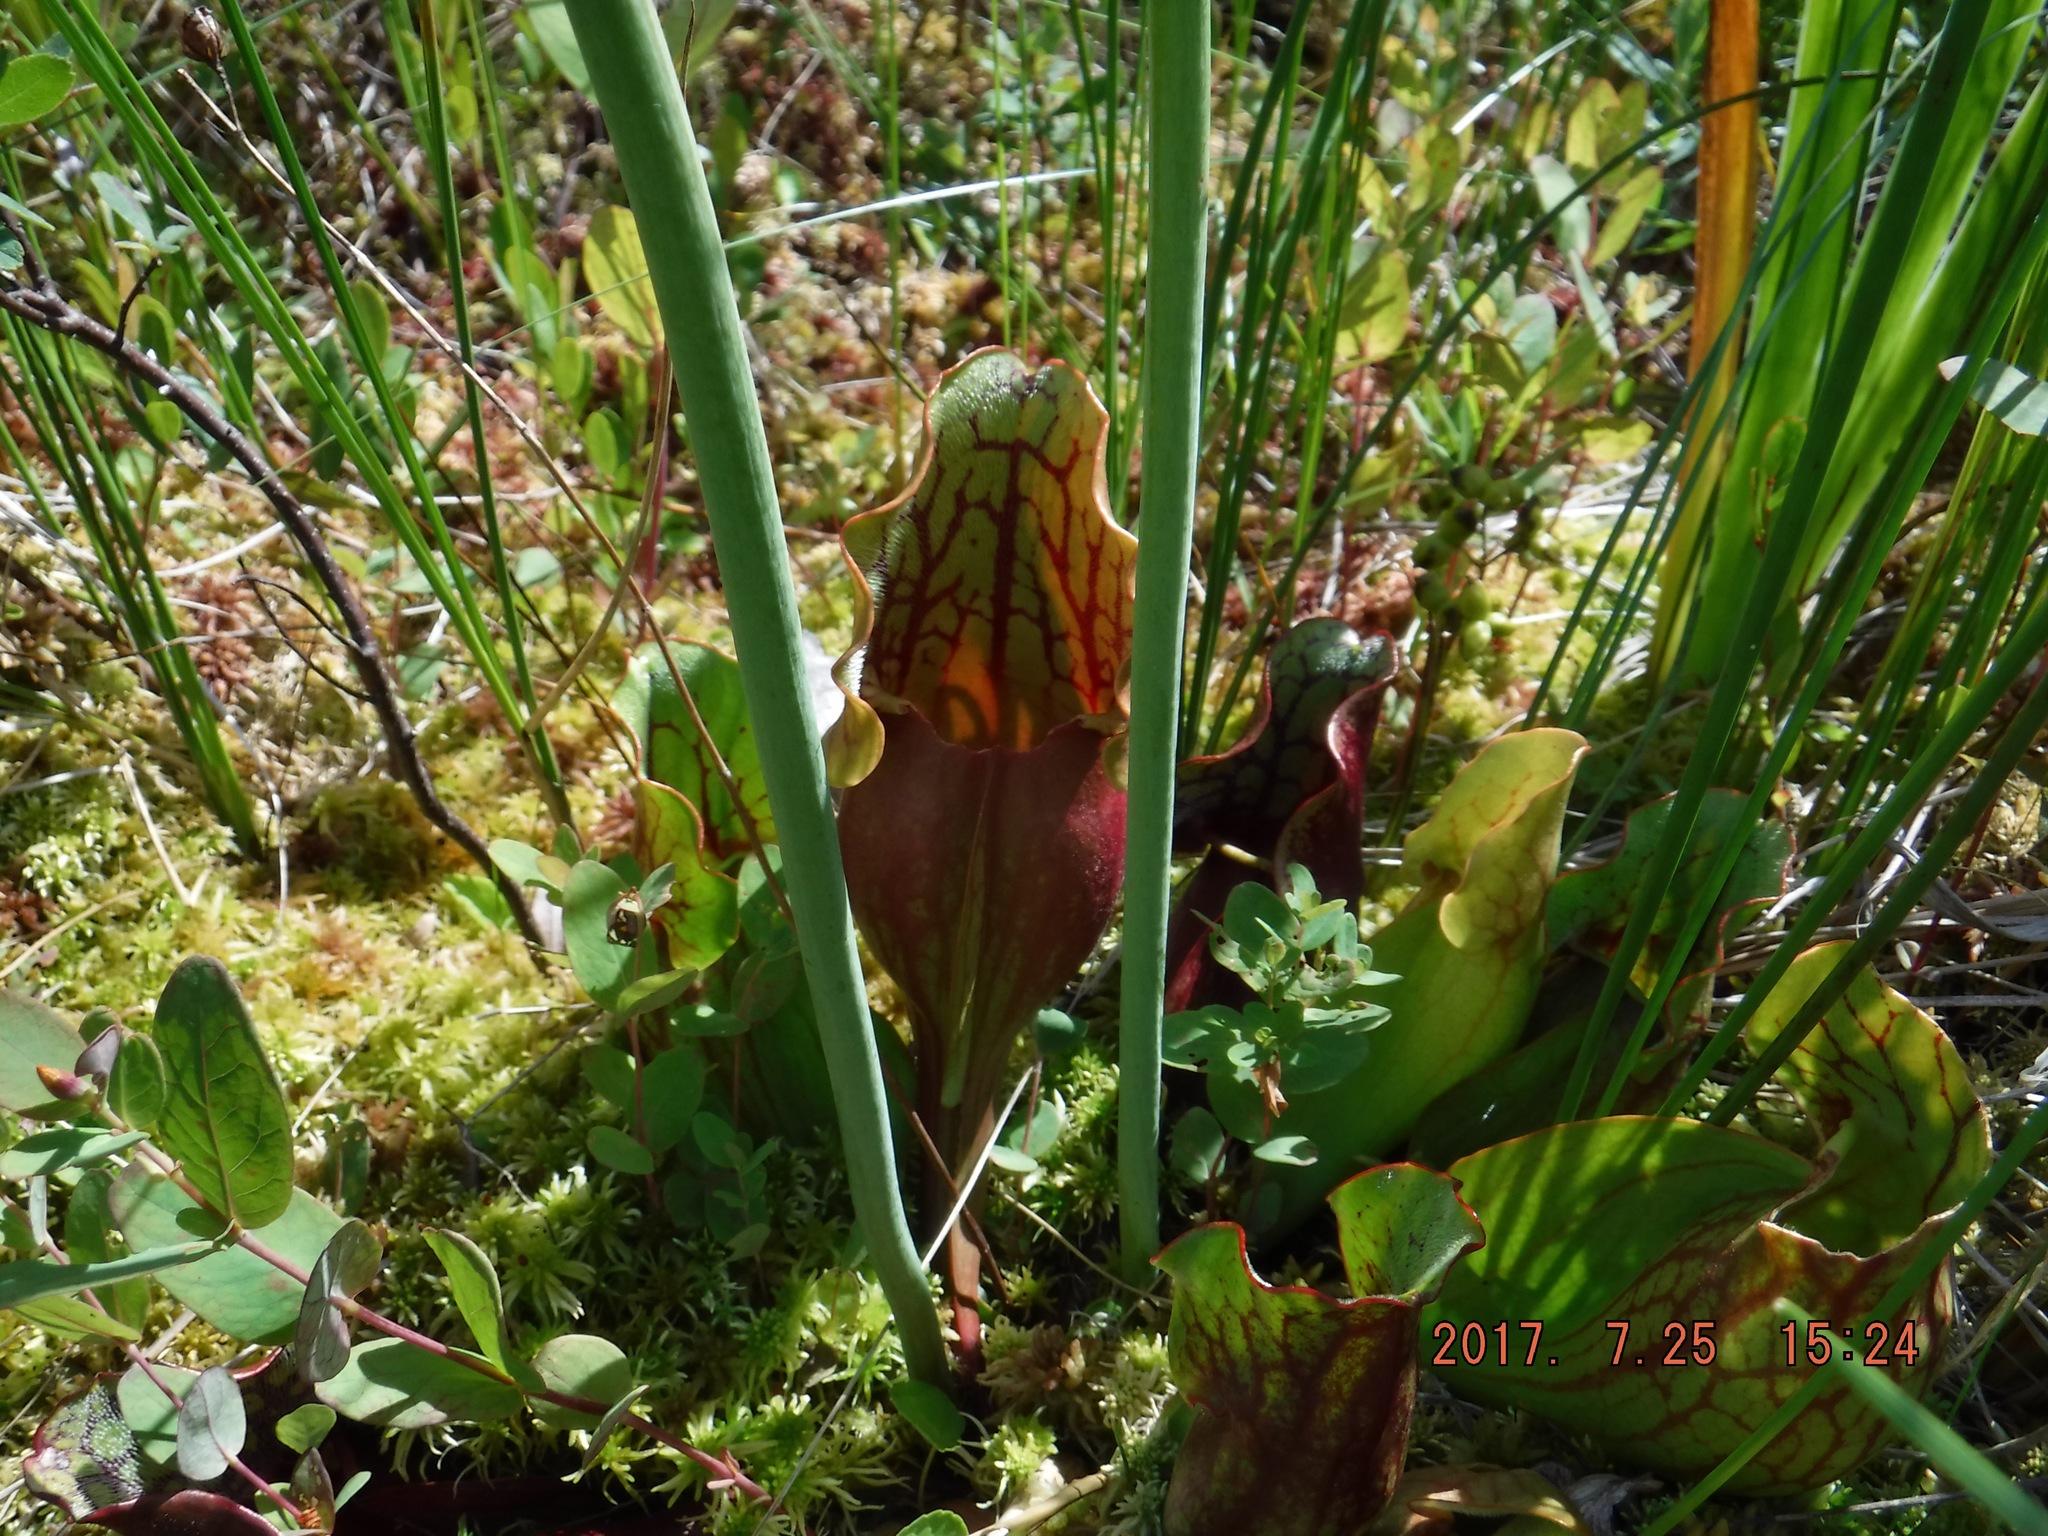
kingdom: Plantae
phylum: Tracheophyta
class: Magnoliopsida
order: Ericales
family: Sarraceniaceae
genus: Sarracenia
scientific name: Sarracenia purpurea
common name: Pitcherplant
